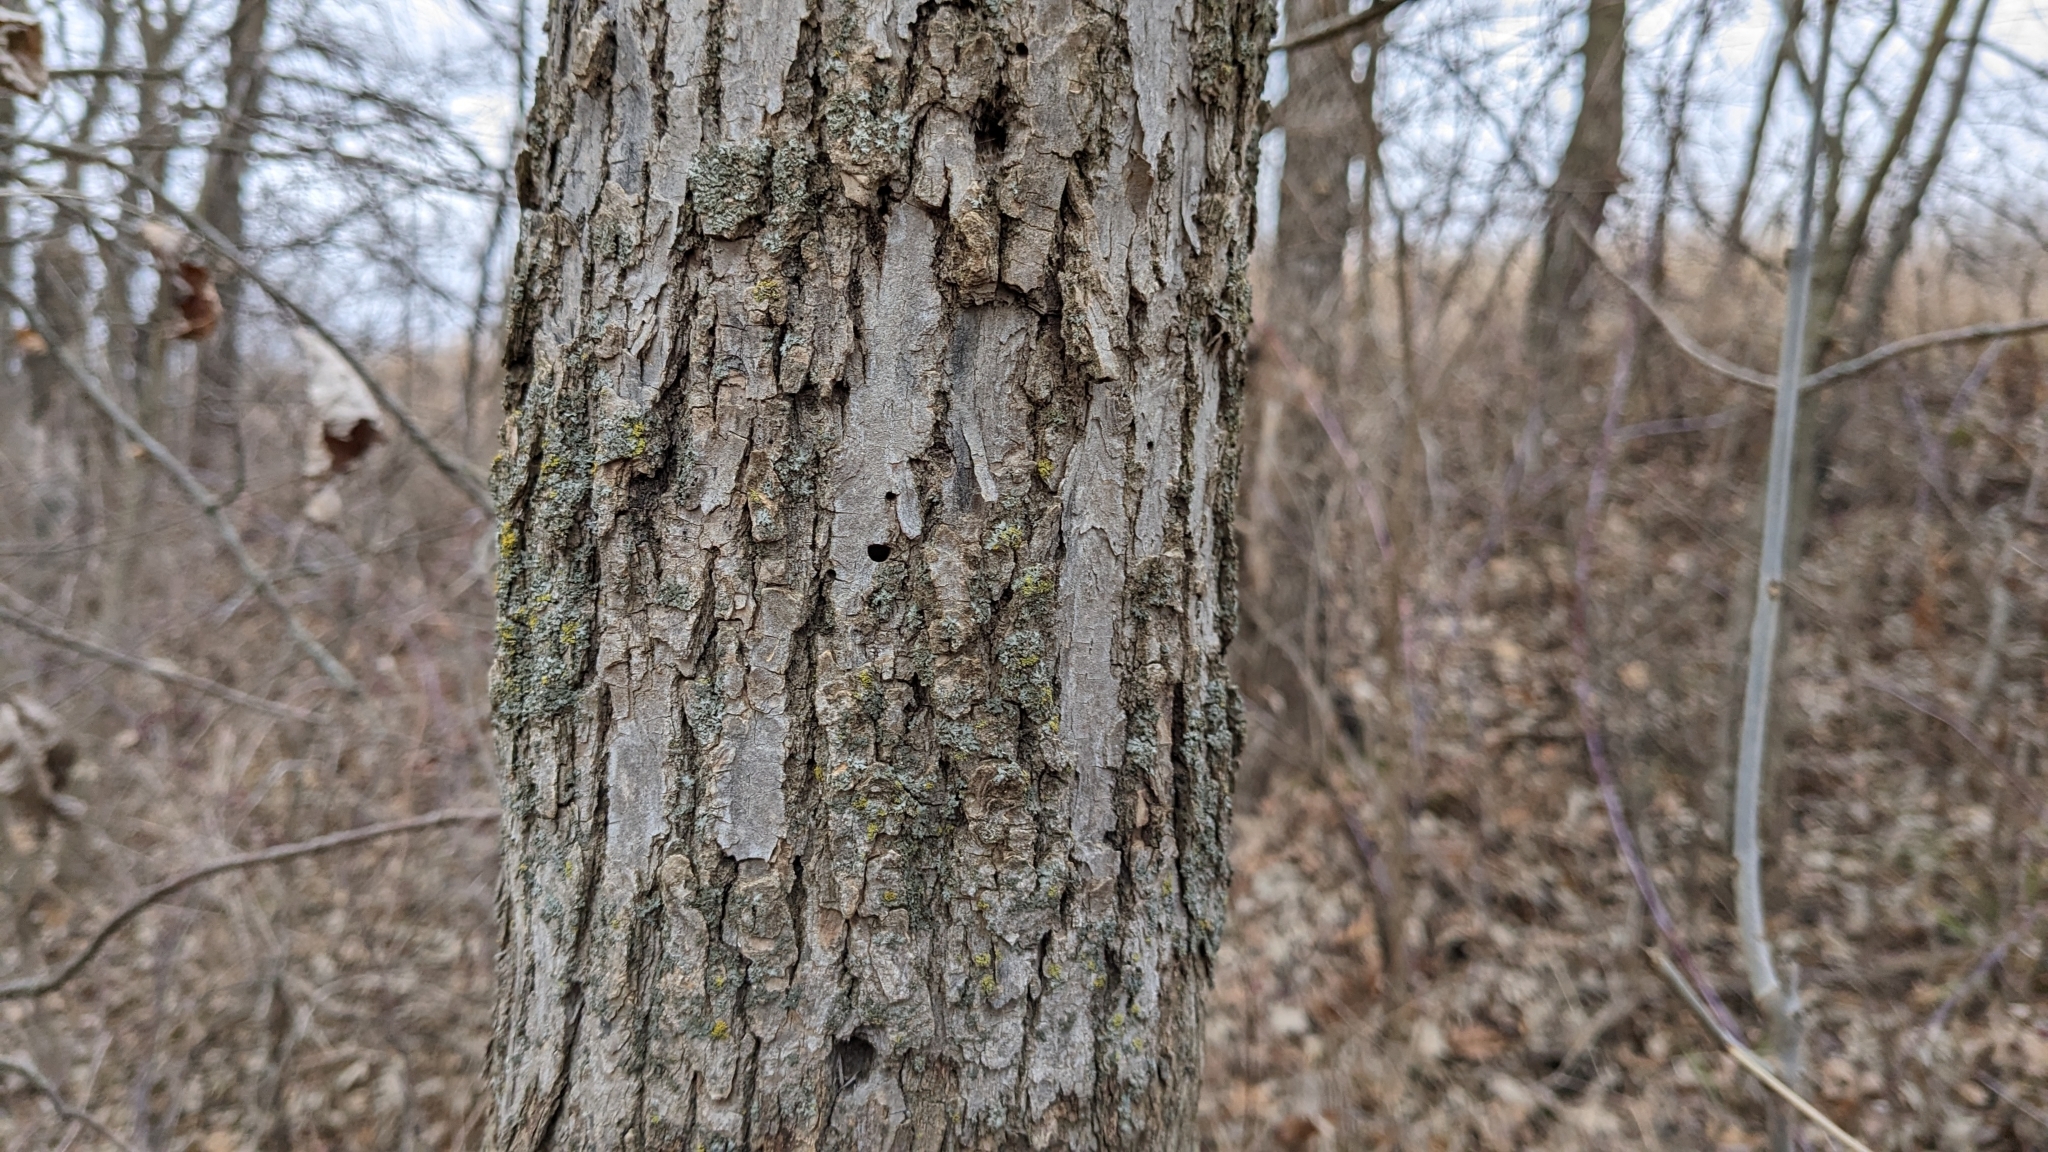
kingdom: Animalia
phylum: Arthropoda
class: Insecta
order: Coleoptera
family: Buprestidae
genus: Agrilus
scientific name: Agrilus planipennis
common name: Emerald ash borer
